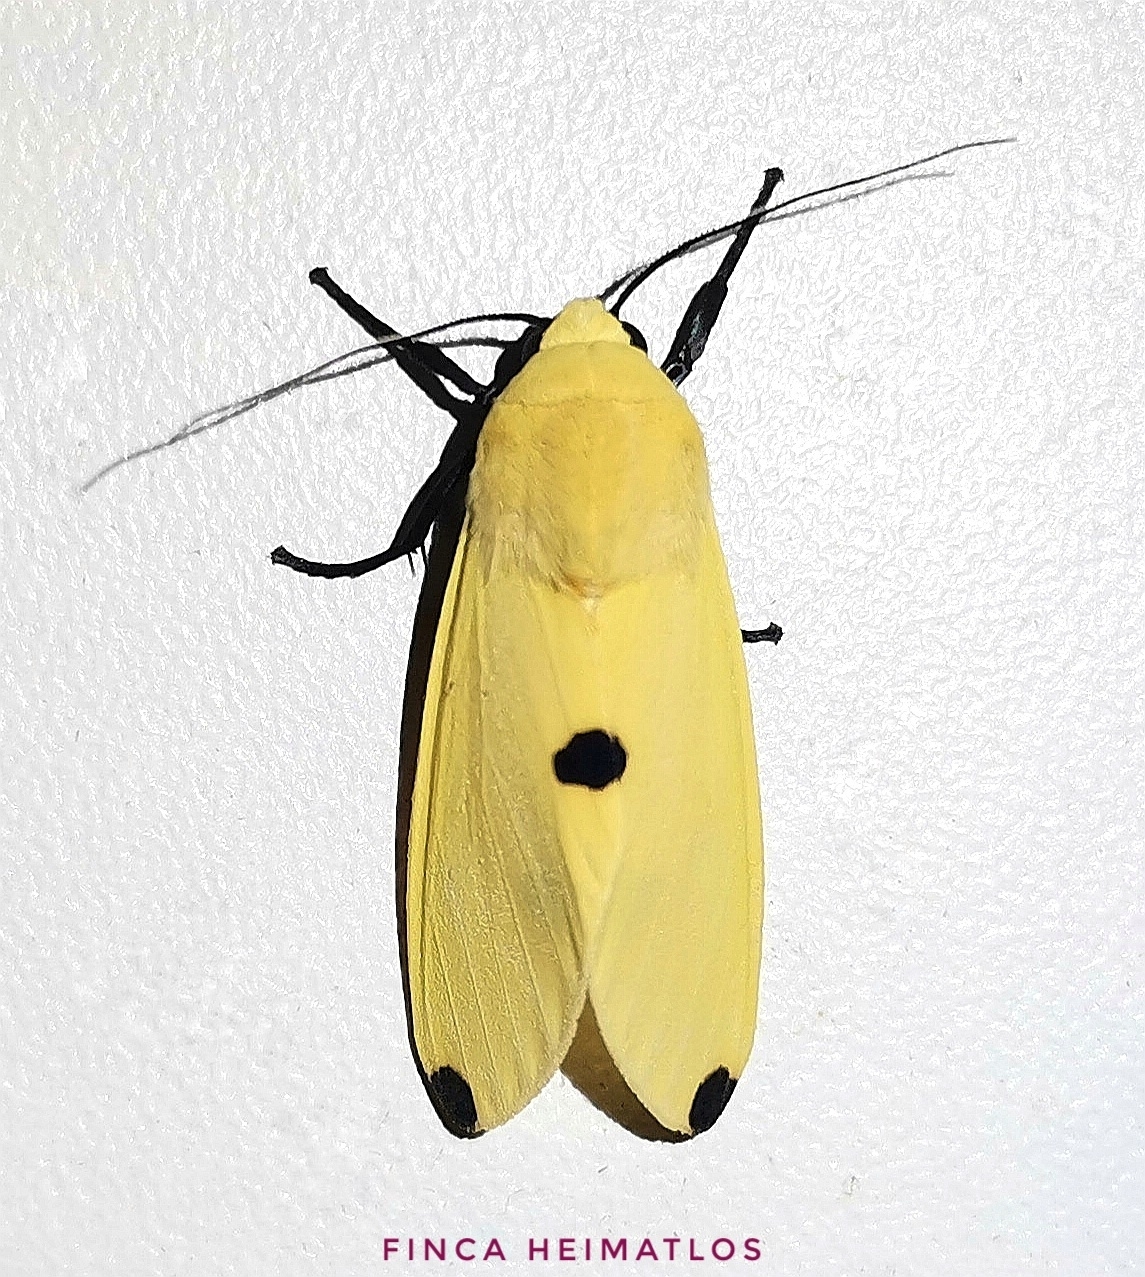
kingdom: Animalia
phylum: Arthropoda
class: Insecta
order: Lepidoptera
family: Erebidae
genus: Viviennea
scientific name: Viviennea superba
